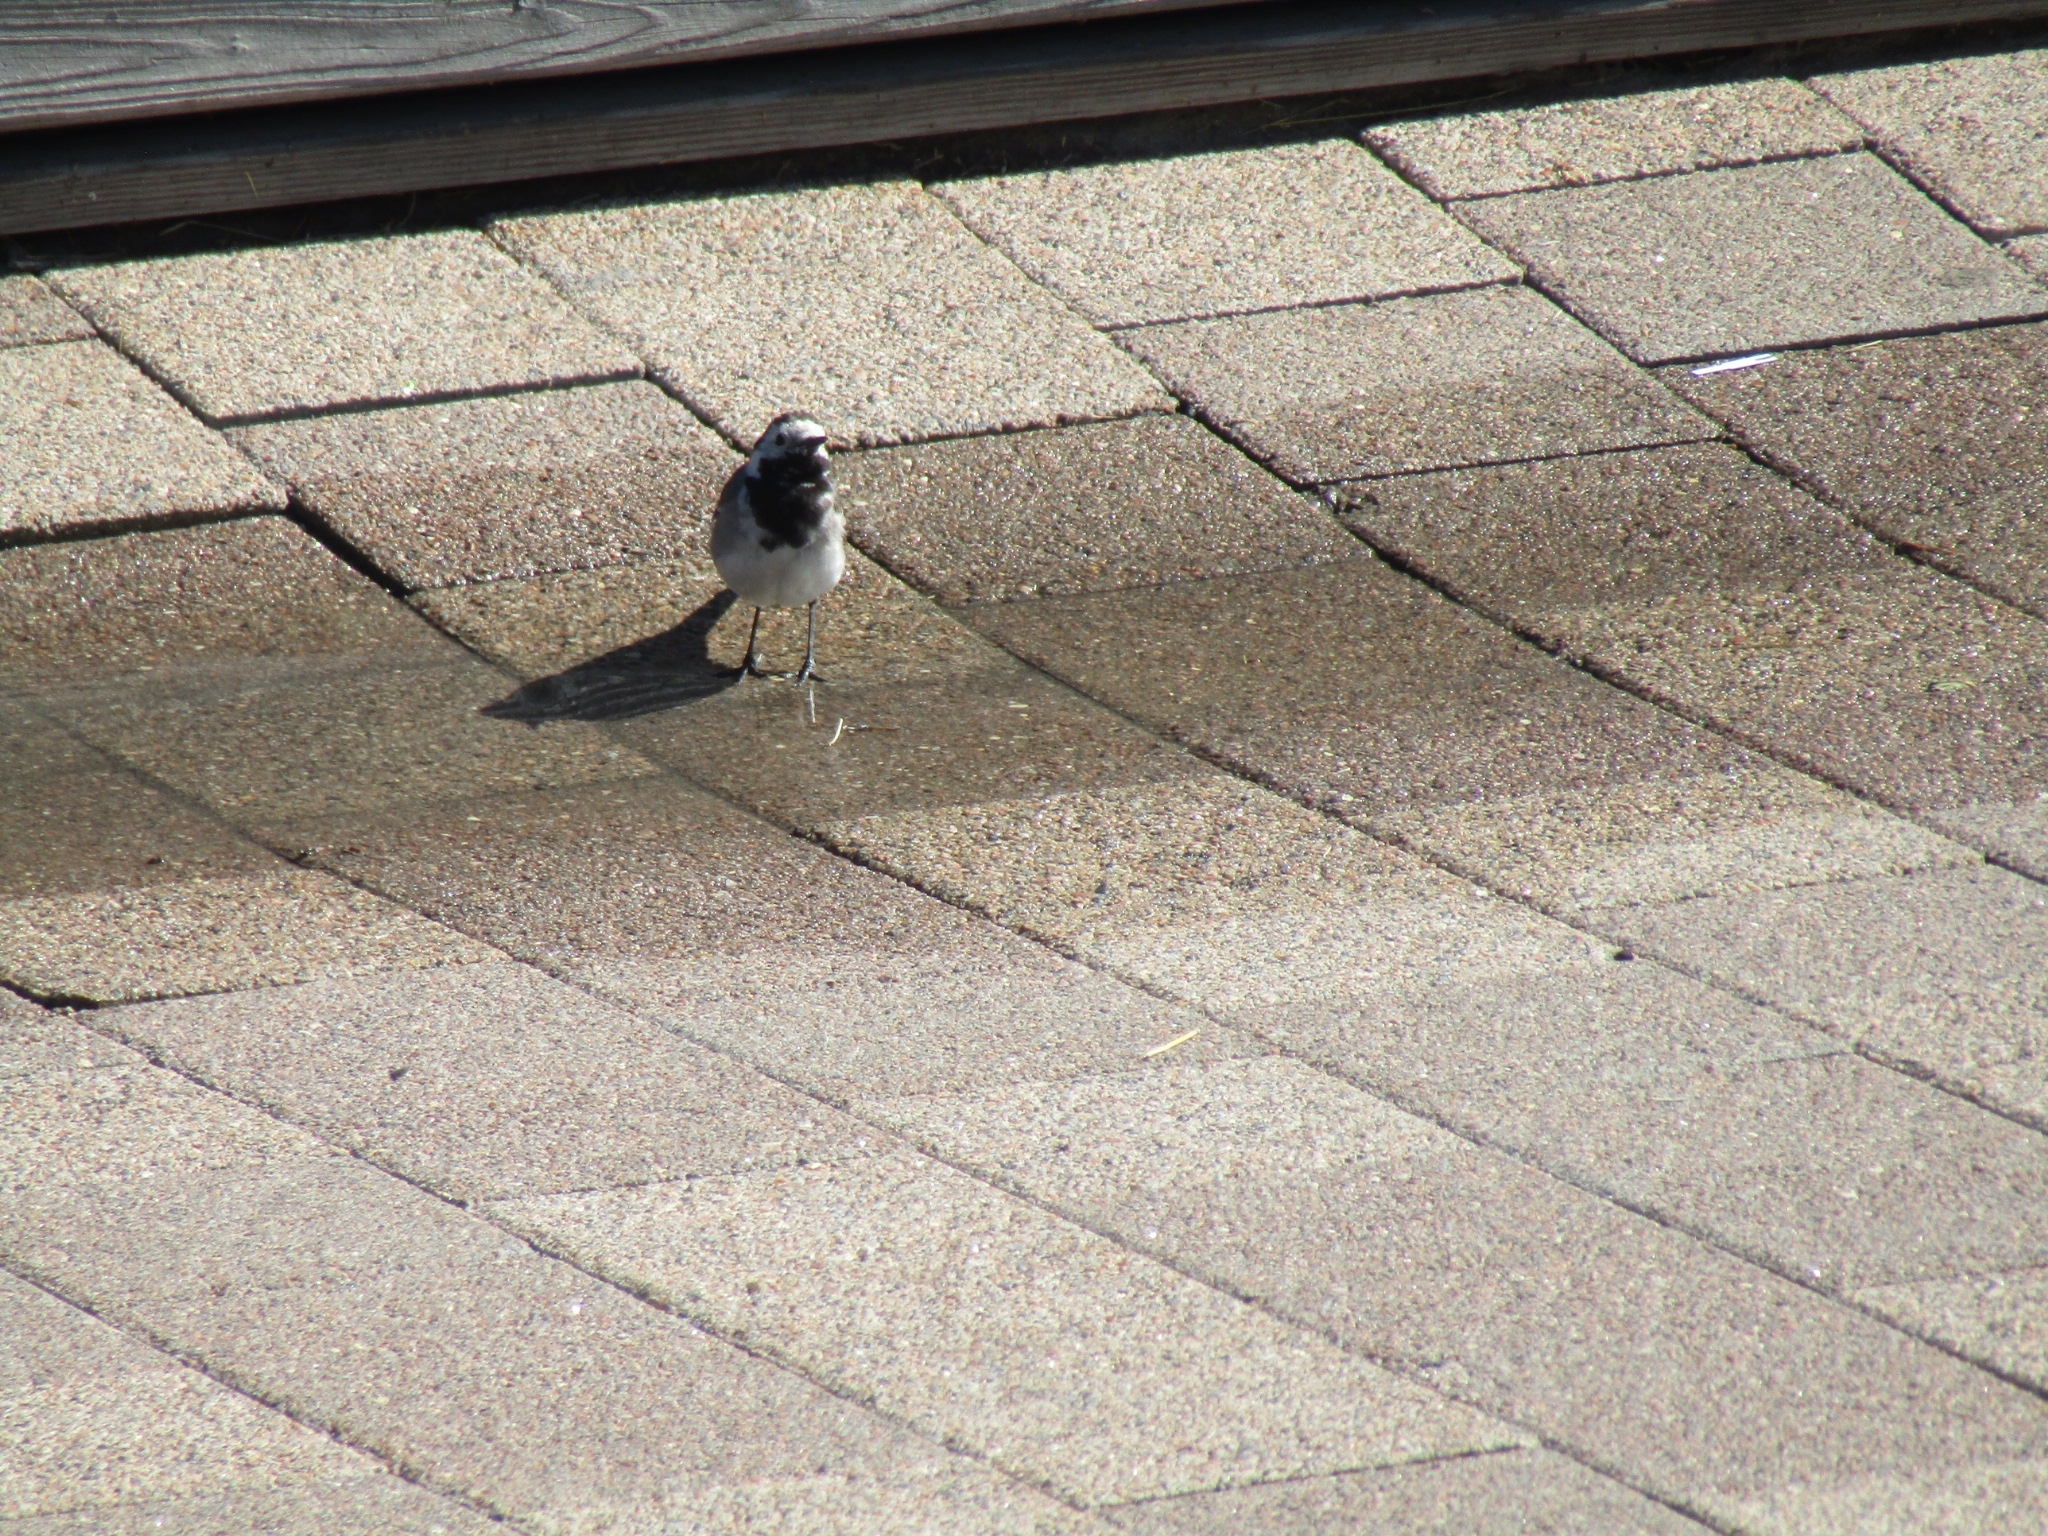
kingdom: Animalia
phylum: Chordata
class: Aves
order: Passeriformes
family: Motacillidae
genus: Motacilla
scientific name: Motacilla alba
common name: White wagtail
